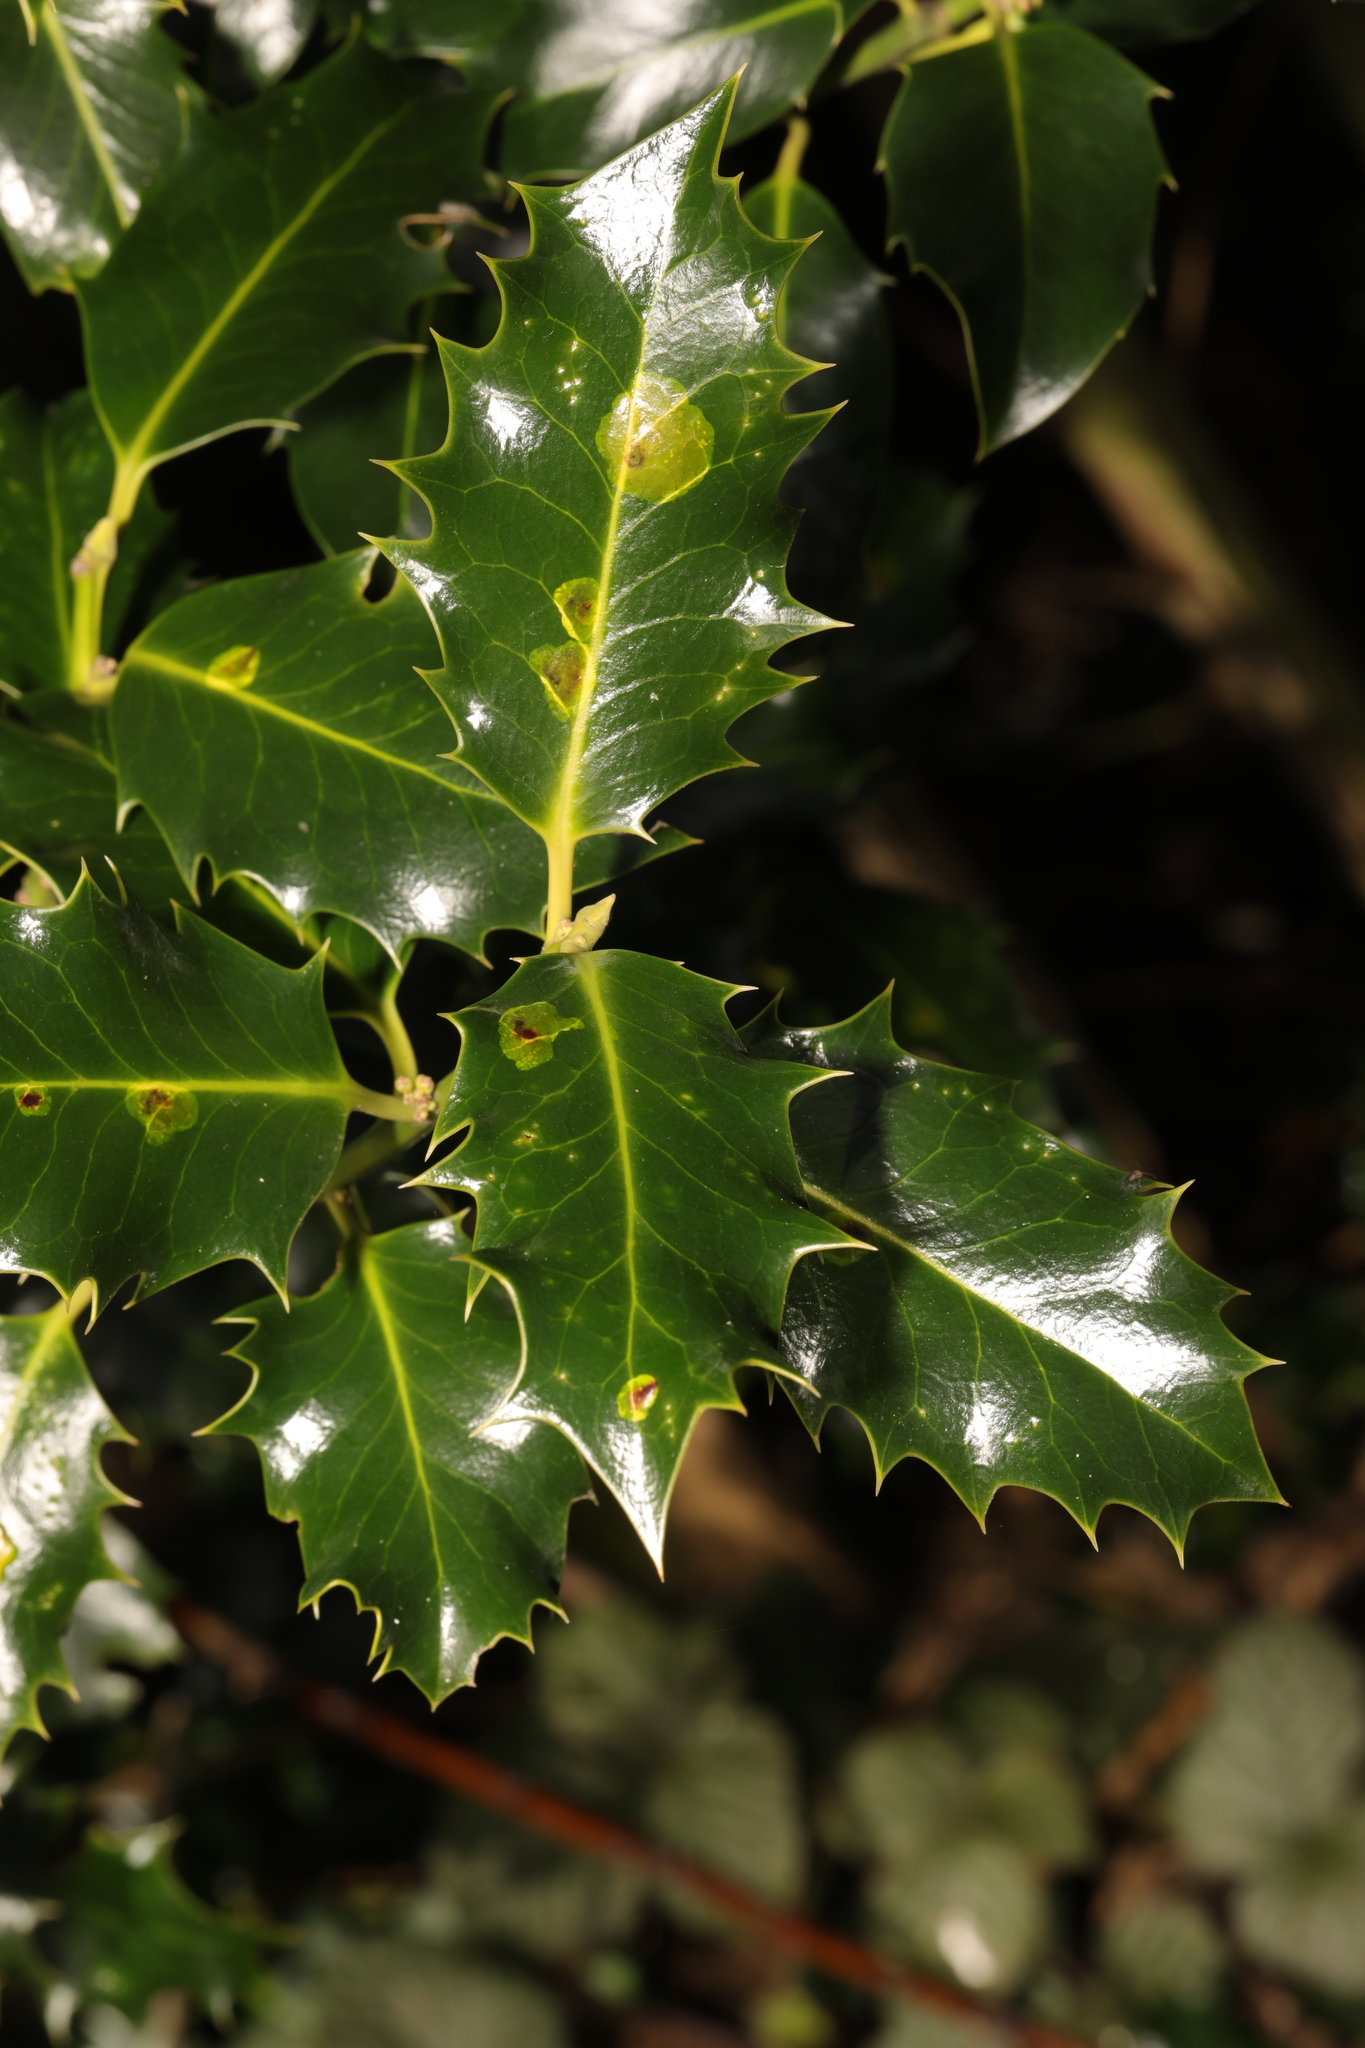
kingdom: Plantae
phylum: Tracheophyta
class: Magnoliopsida
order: Aquifoliales
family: Aquifoliaceae
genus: Ilex
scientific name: Ilex aquifolium
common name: English holly
